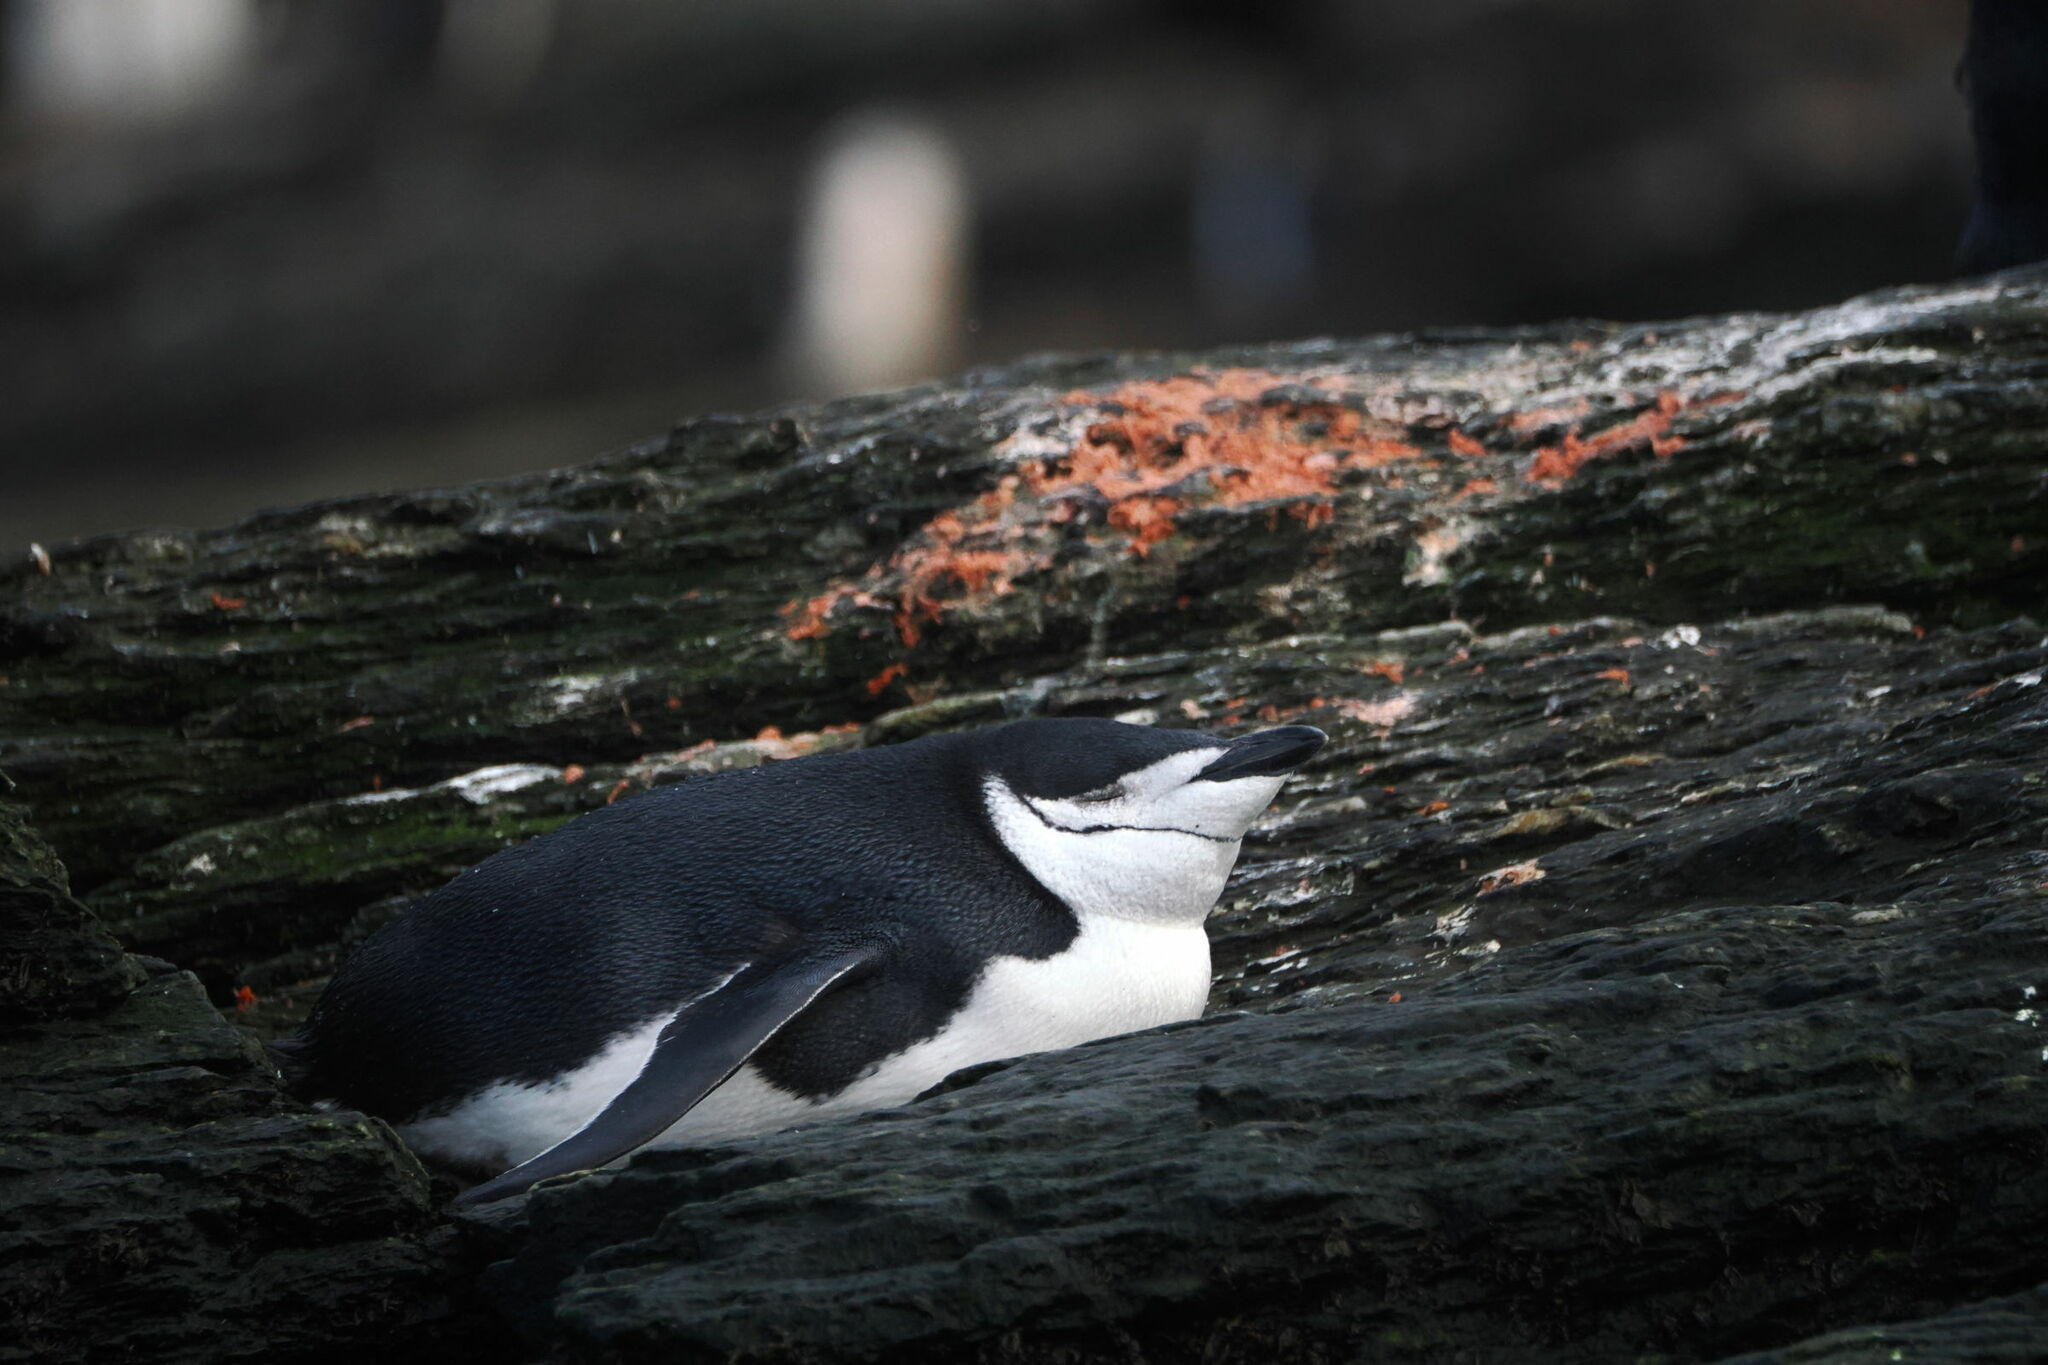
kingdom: Animalia
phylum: Chordata
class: Aves
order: Sphenisciformes
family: Spheniscidae
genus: Pygoscelis
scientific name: Pygoscelis antarcticus
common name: Chinstrap penguin
